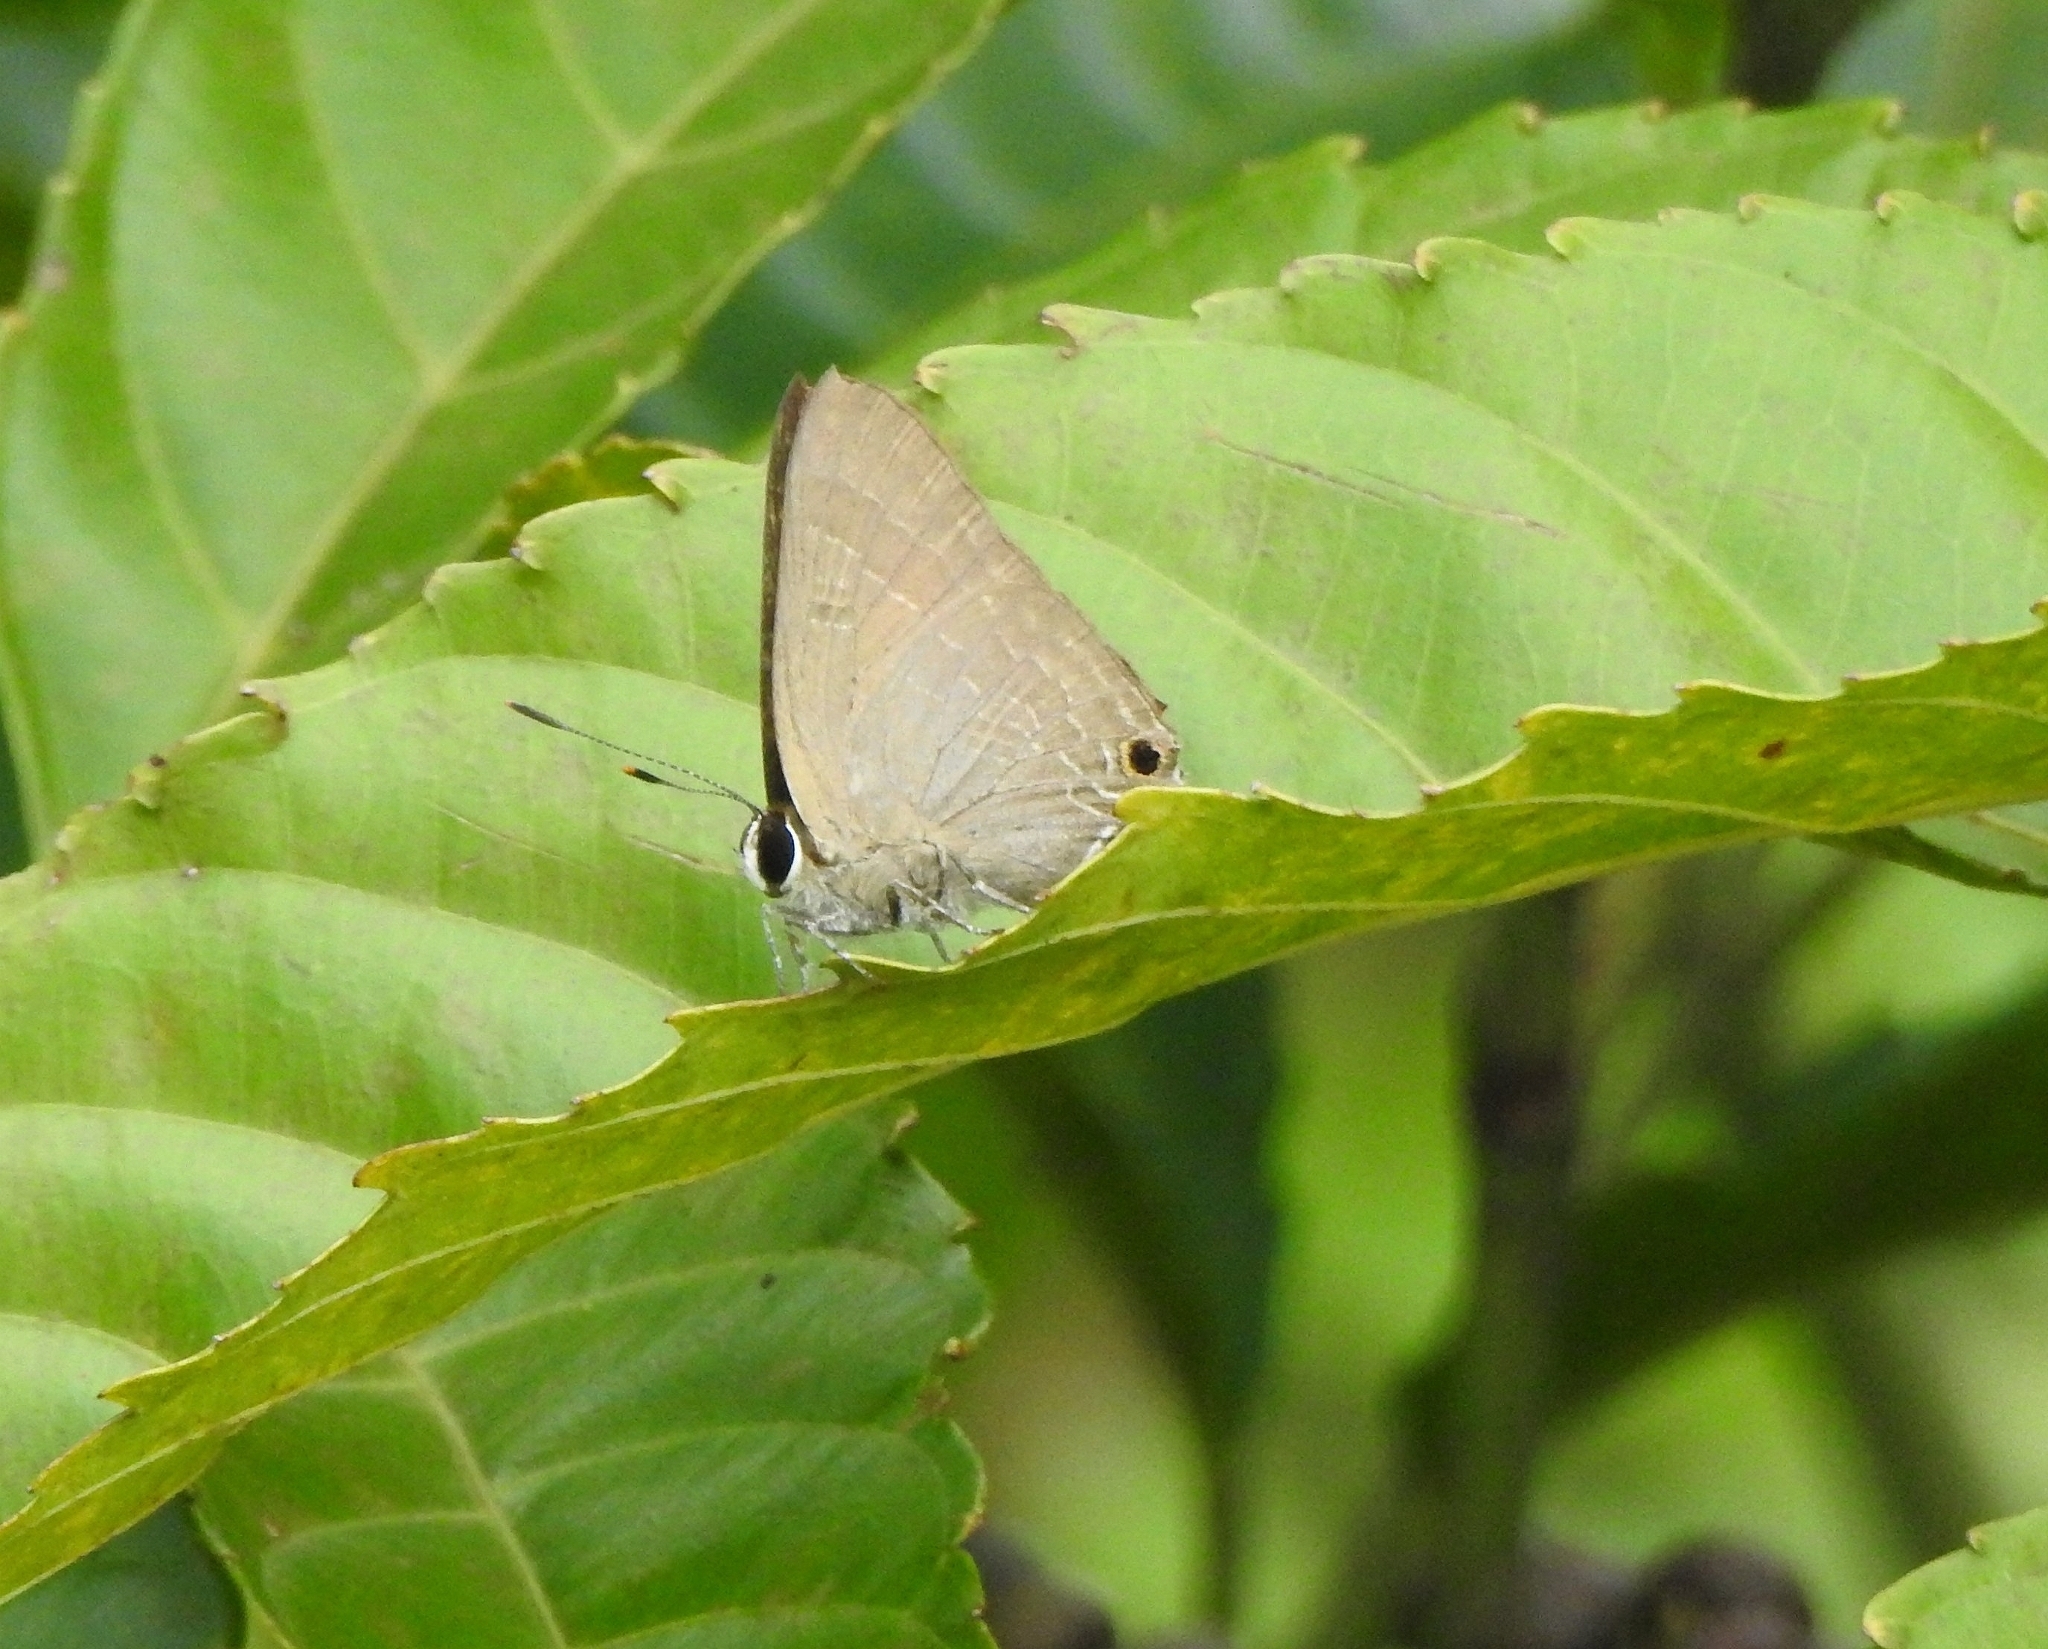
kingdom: Animalia
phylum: Arthropoda
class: Insecta
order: Lepidoptera
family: Lycaenidae
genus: Deudorix
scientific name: Deudorix epijarbas
